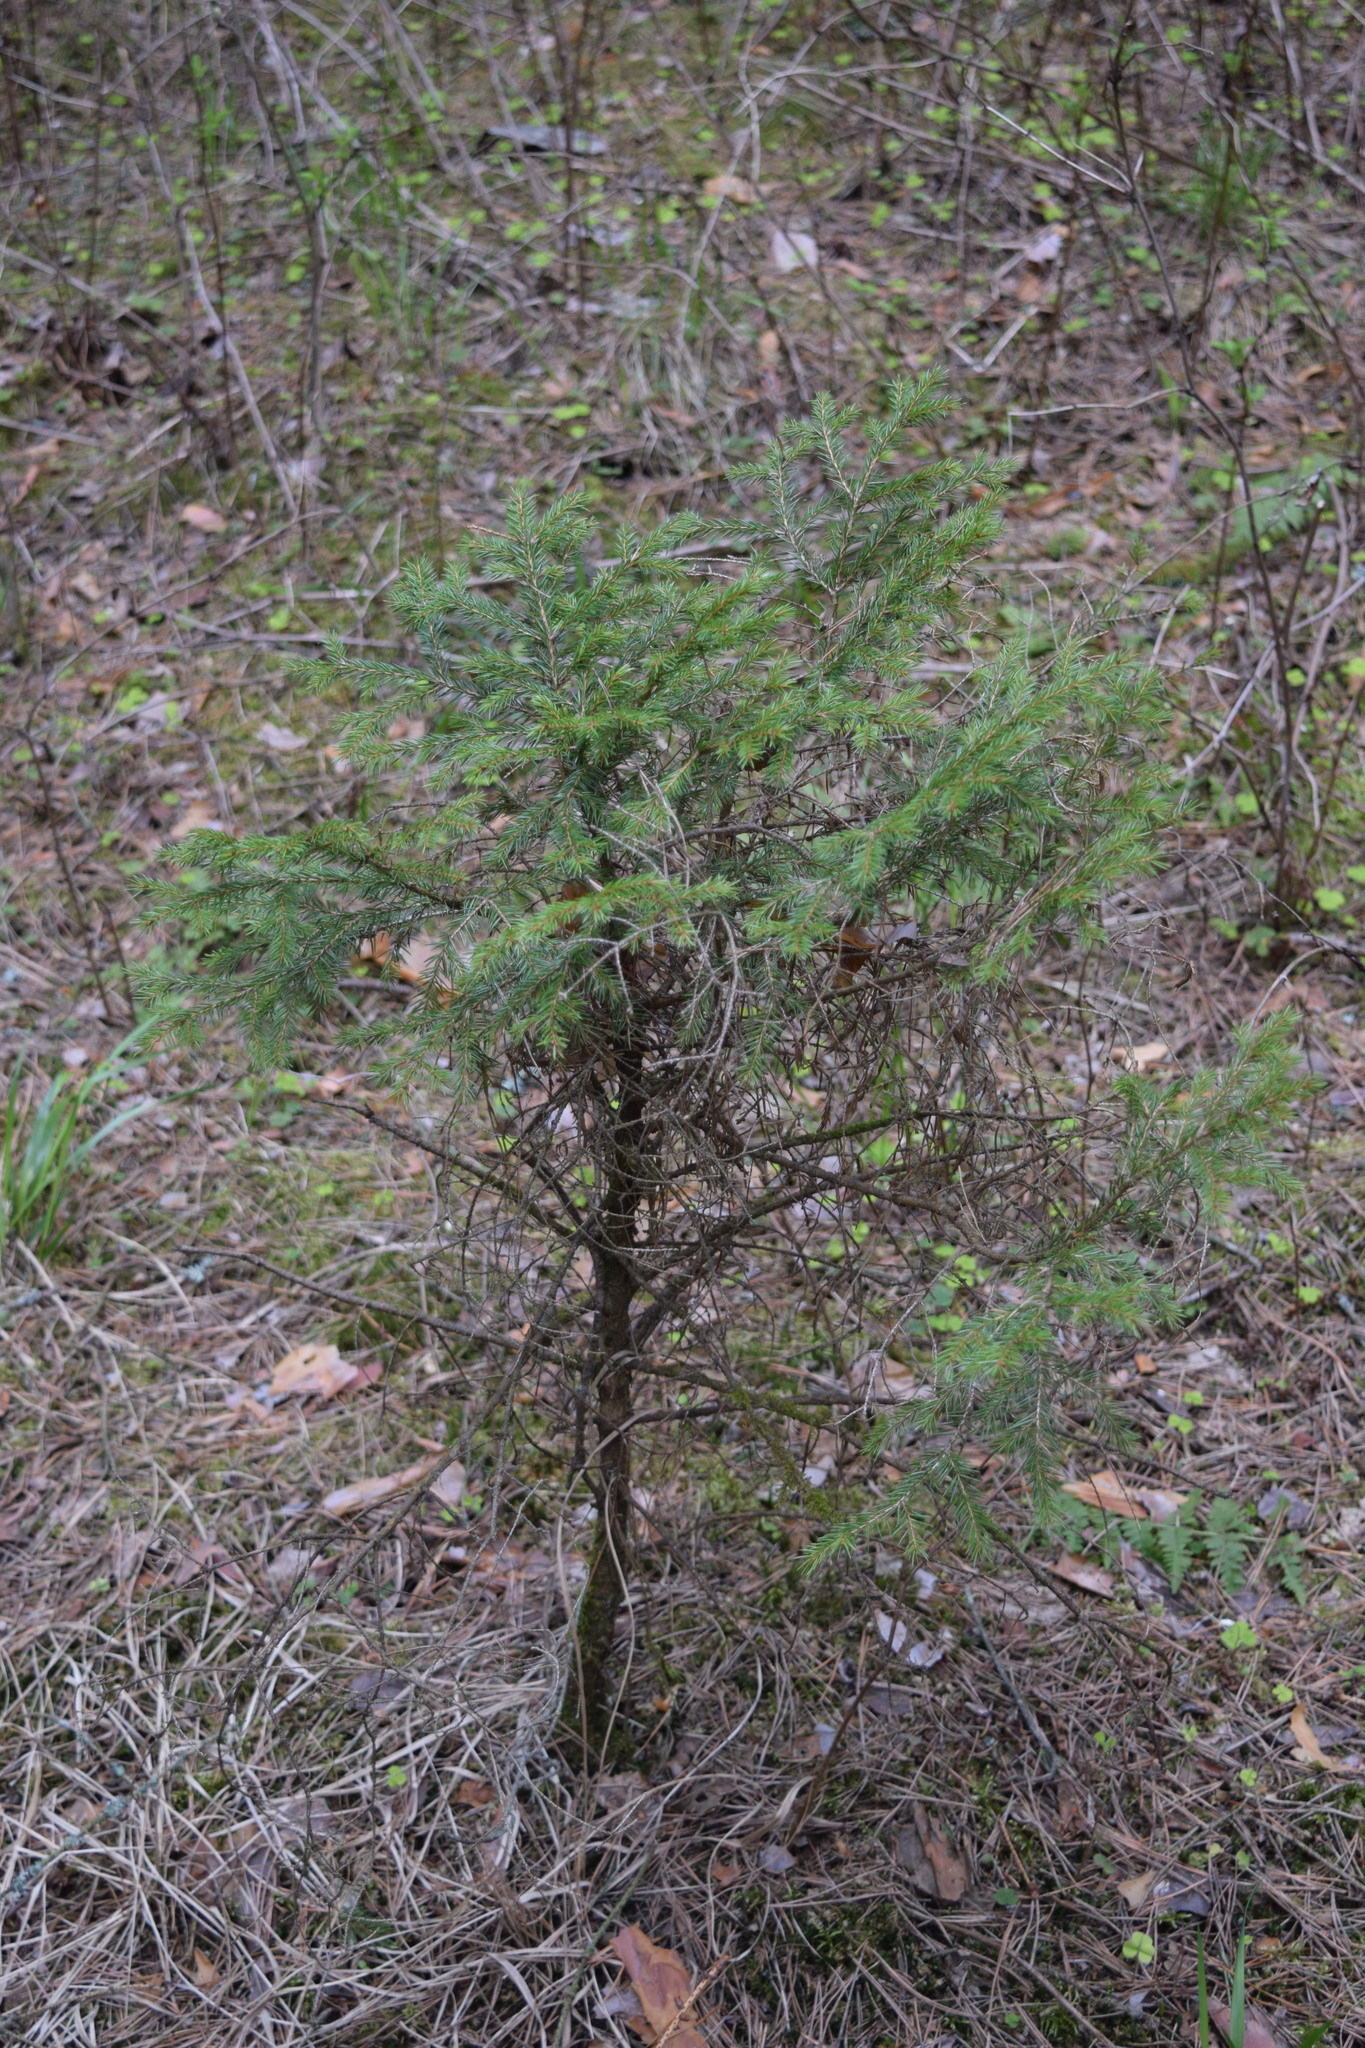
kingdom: Plantae
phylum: Tracheophyta
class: Pinopsida
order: Pinales
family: Pinaceae
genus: Picea
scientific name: Picea abies
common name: Norway spruce
